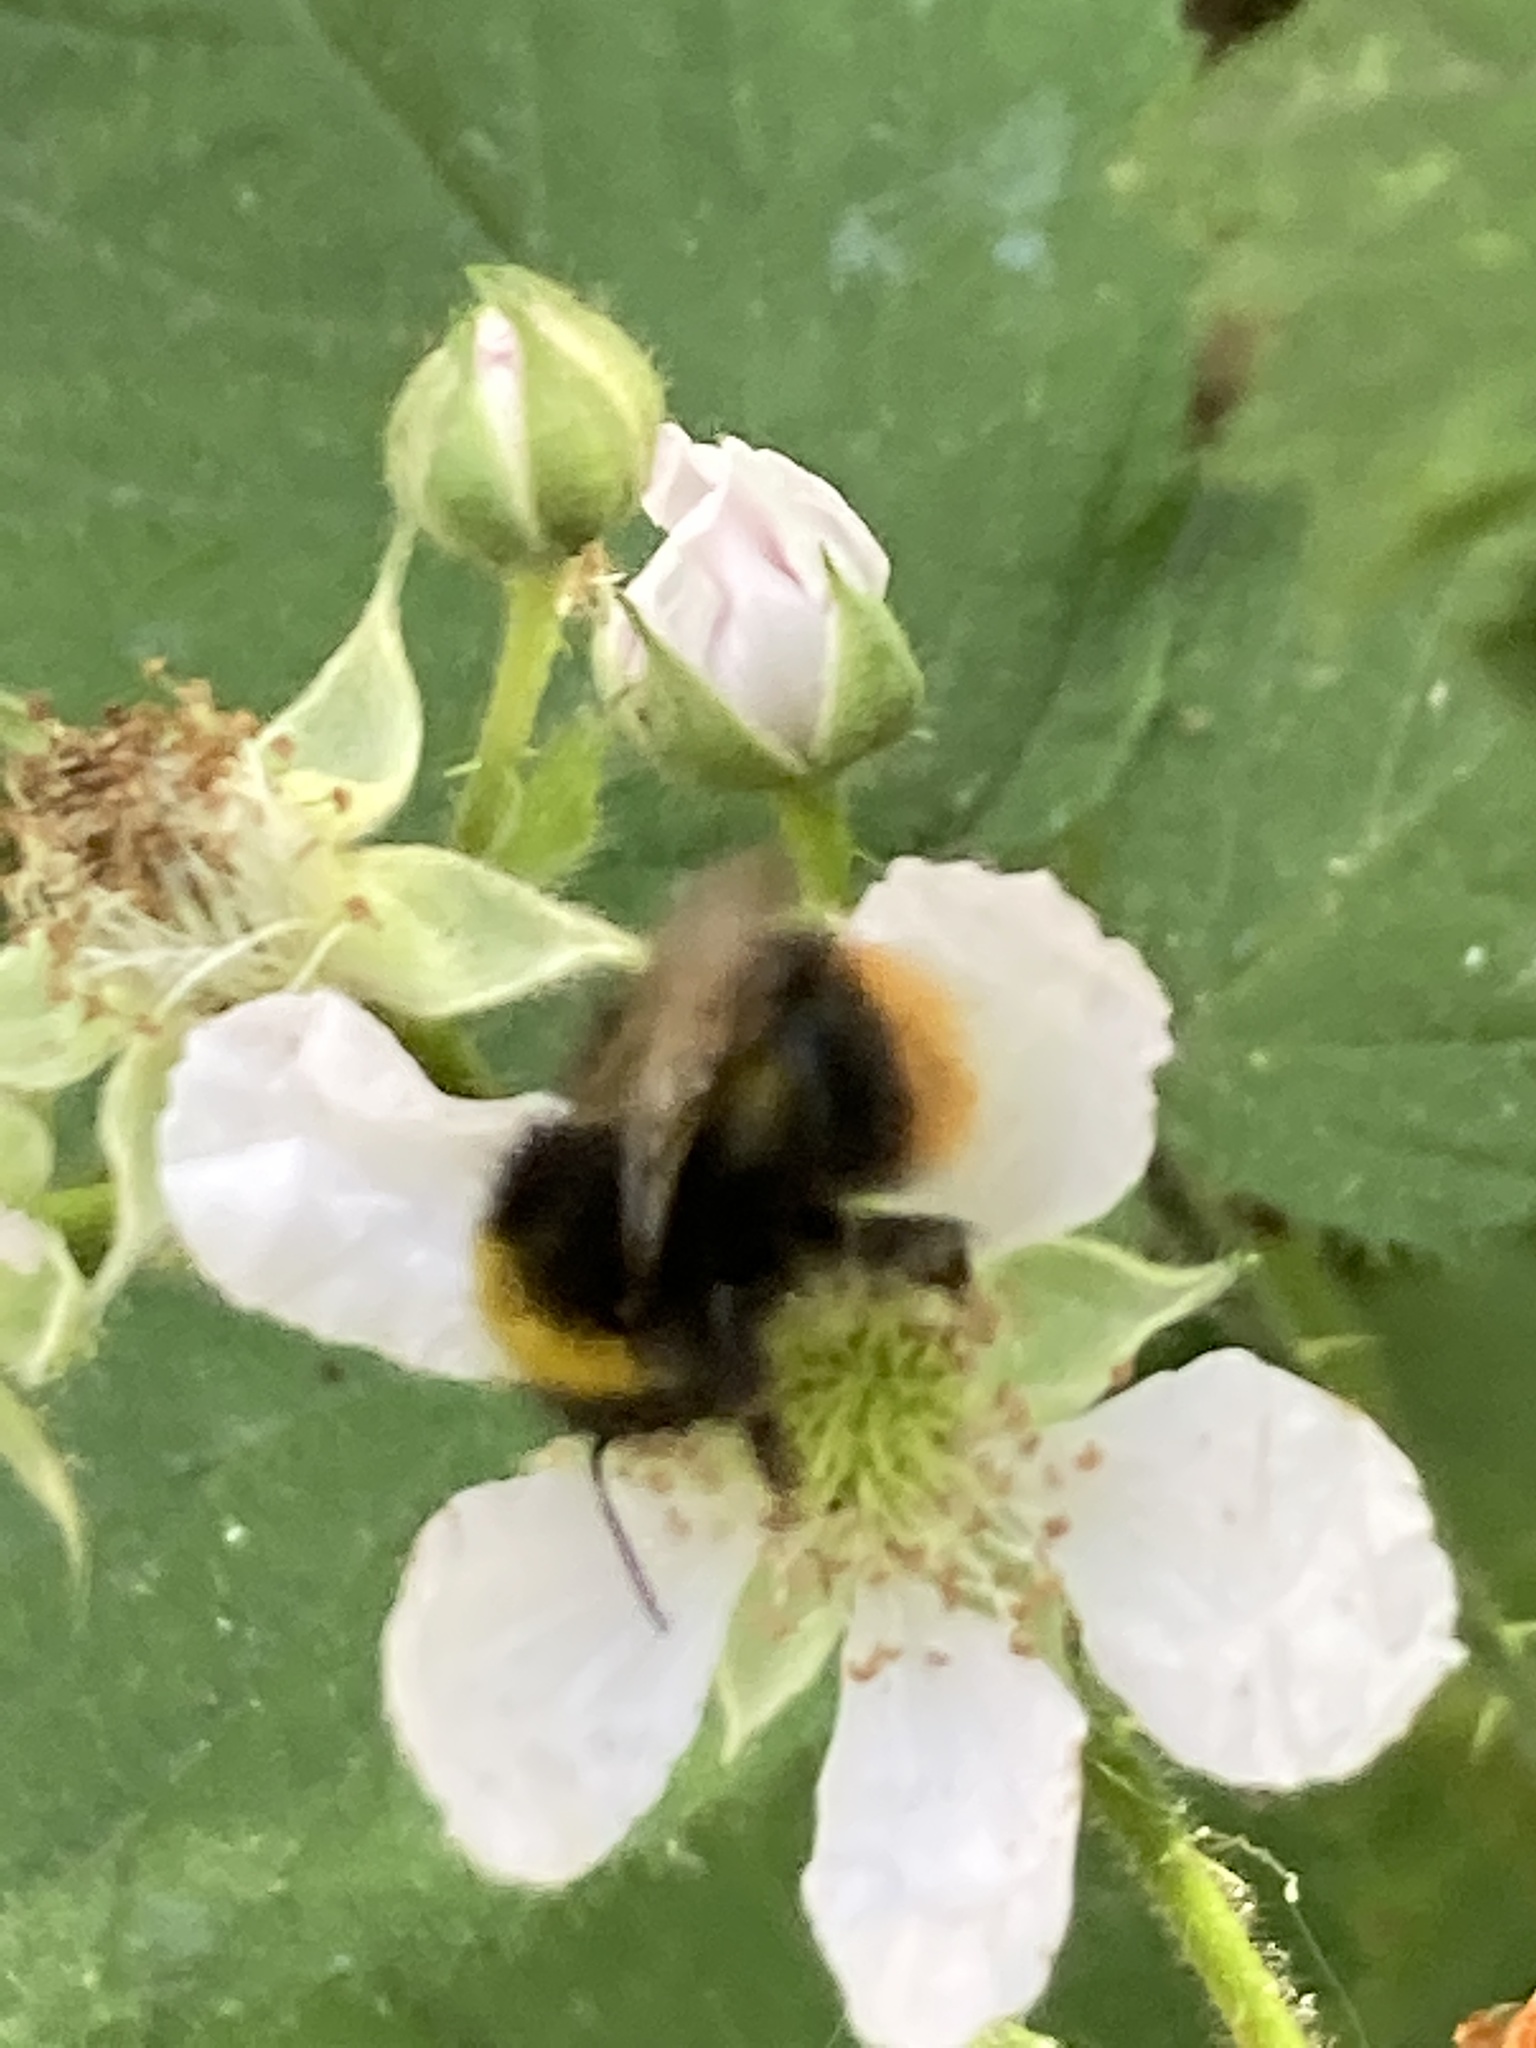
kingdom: Animalia
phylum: Arthropoda
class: Insecta
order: Hymenoptera
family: Apidae
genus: Bombus
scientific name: Bombus pratorum
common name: Early humble-bee
